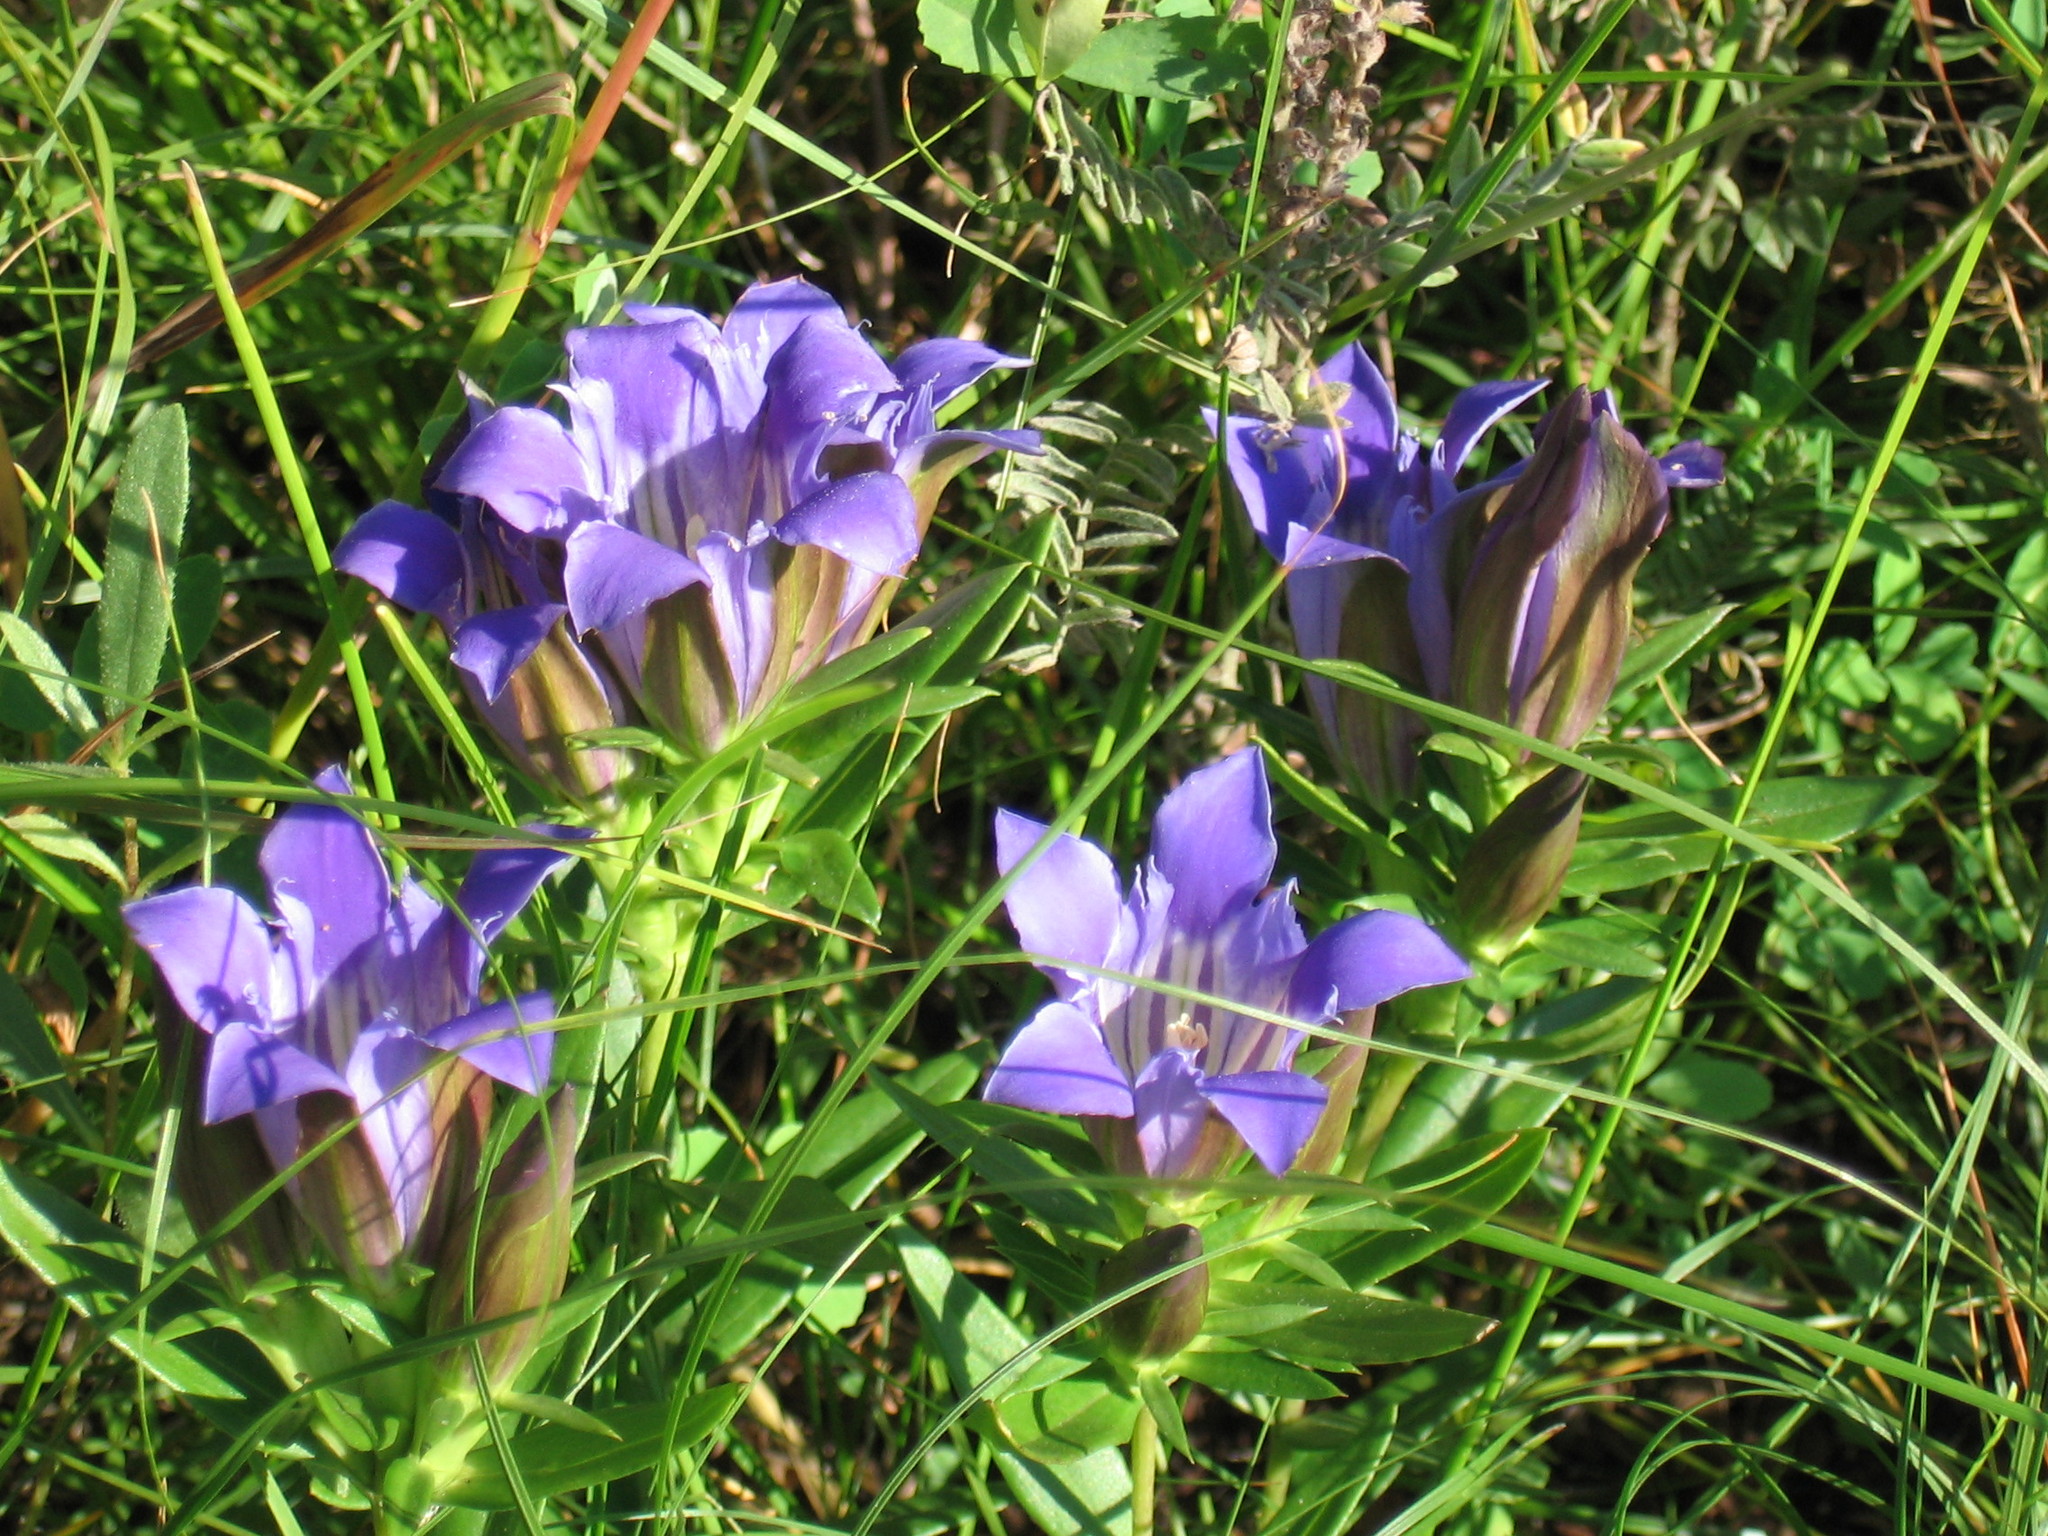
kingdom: Plantae
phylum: Tracheophyta
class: Magnoliopsida
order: Gentianales
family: Gentianaceae
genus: Gentiana
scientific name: Gentiana puberulenta
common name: Downy gentian
